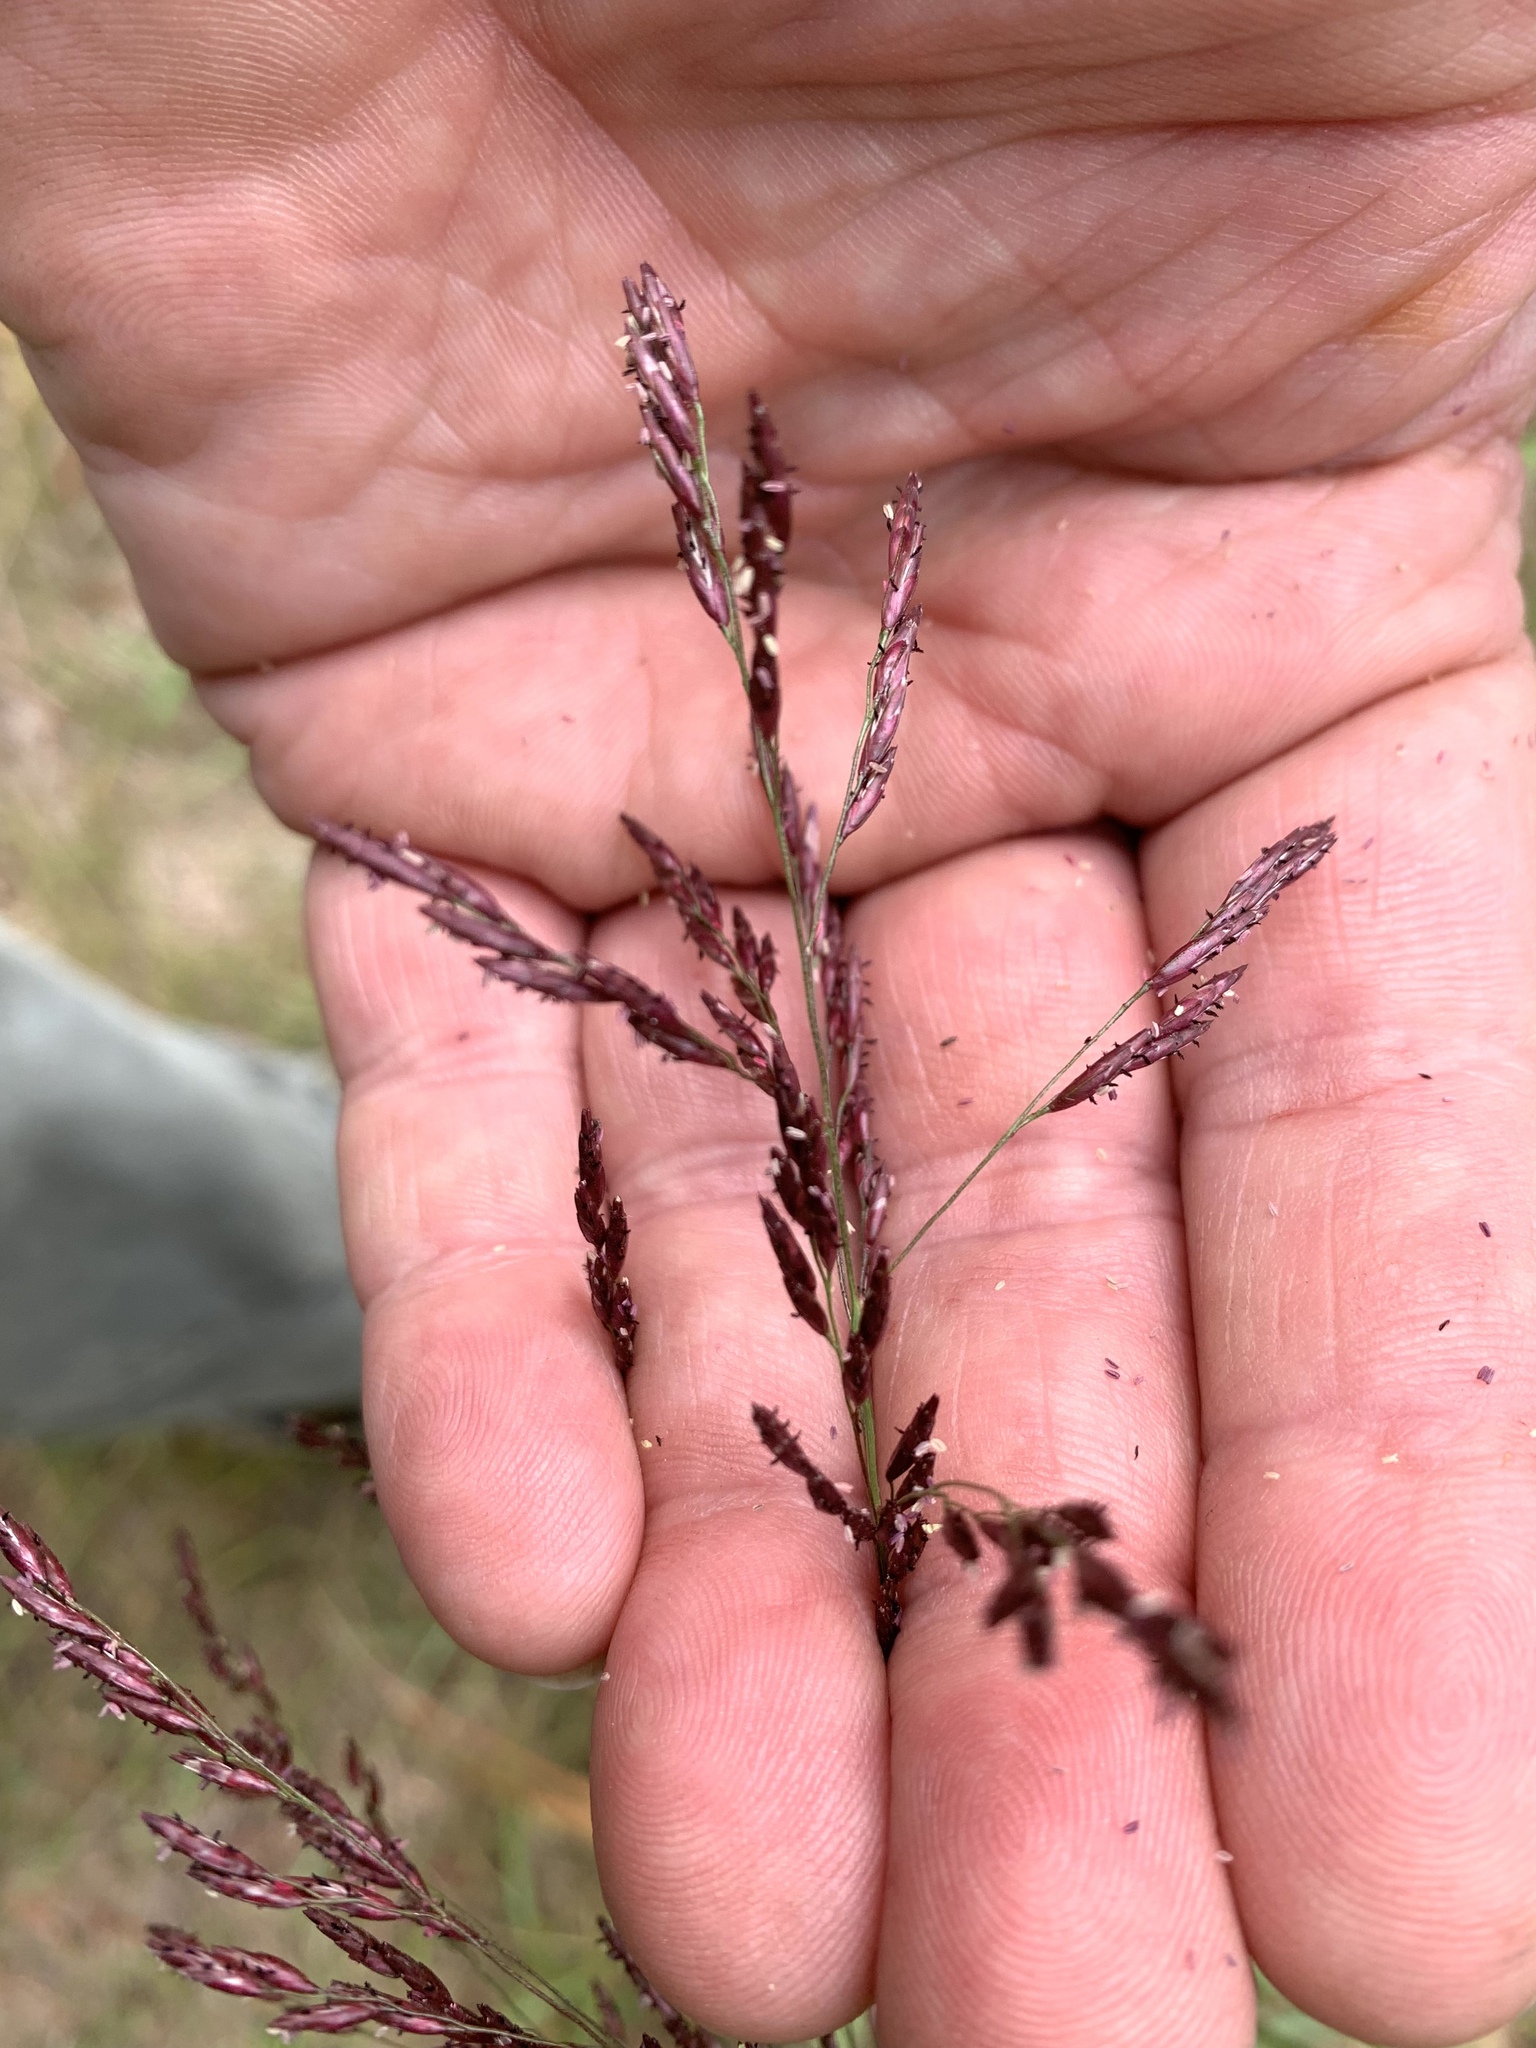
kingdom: Plantae
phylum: Tracheophyta
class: Liliopsida
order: Poales
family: Poaceae
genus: Tridens
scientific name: Tridens flavus
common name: Purpletop
